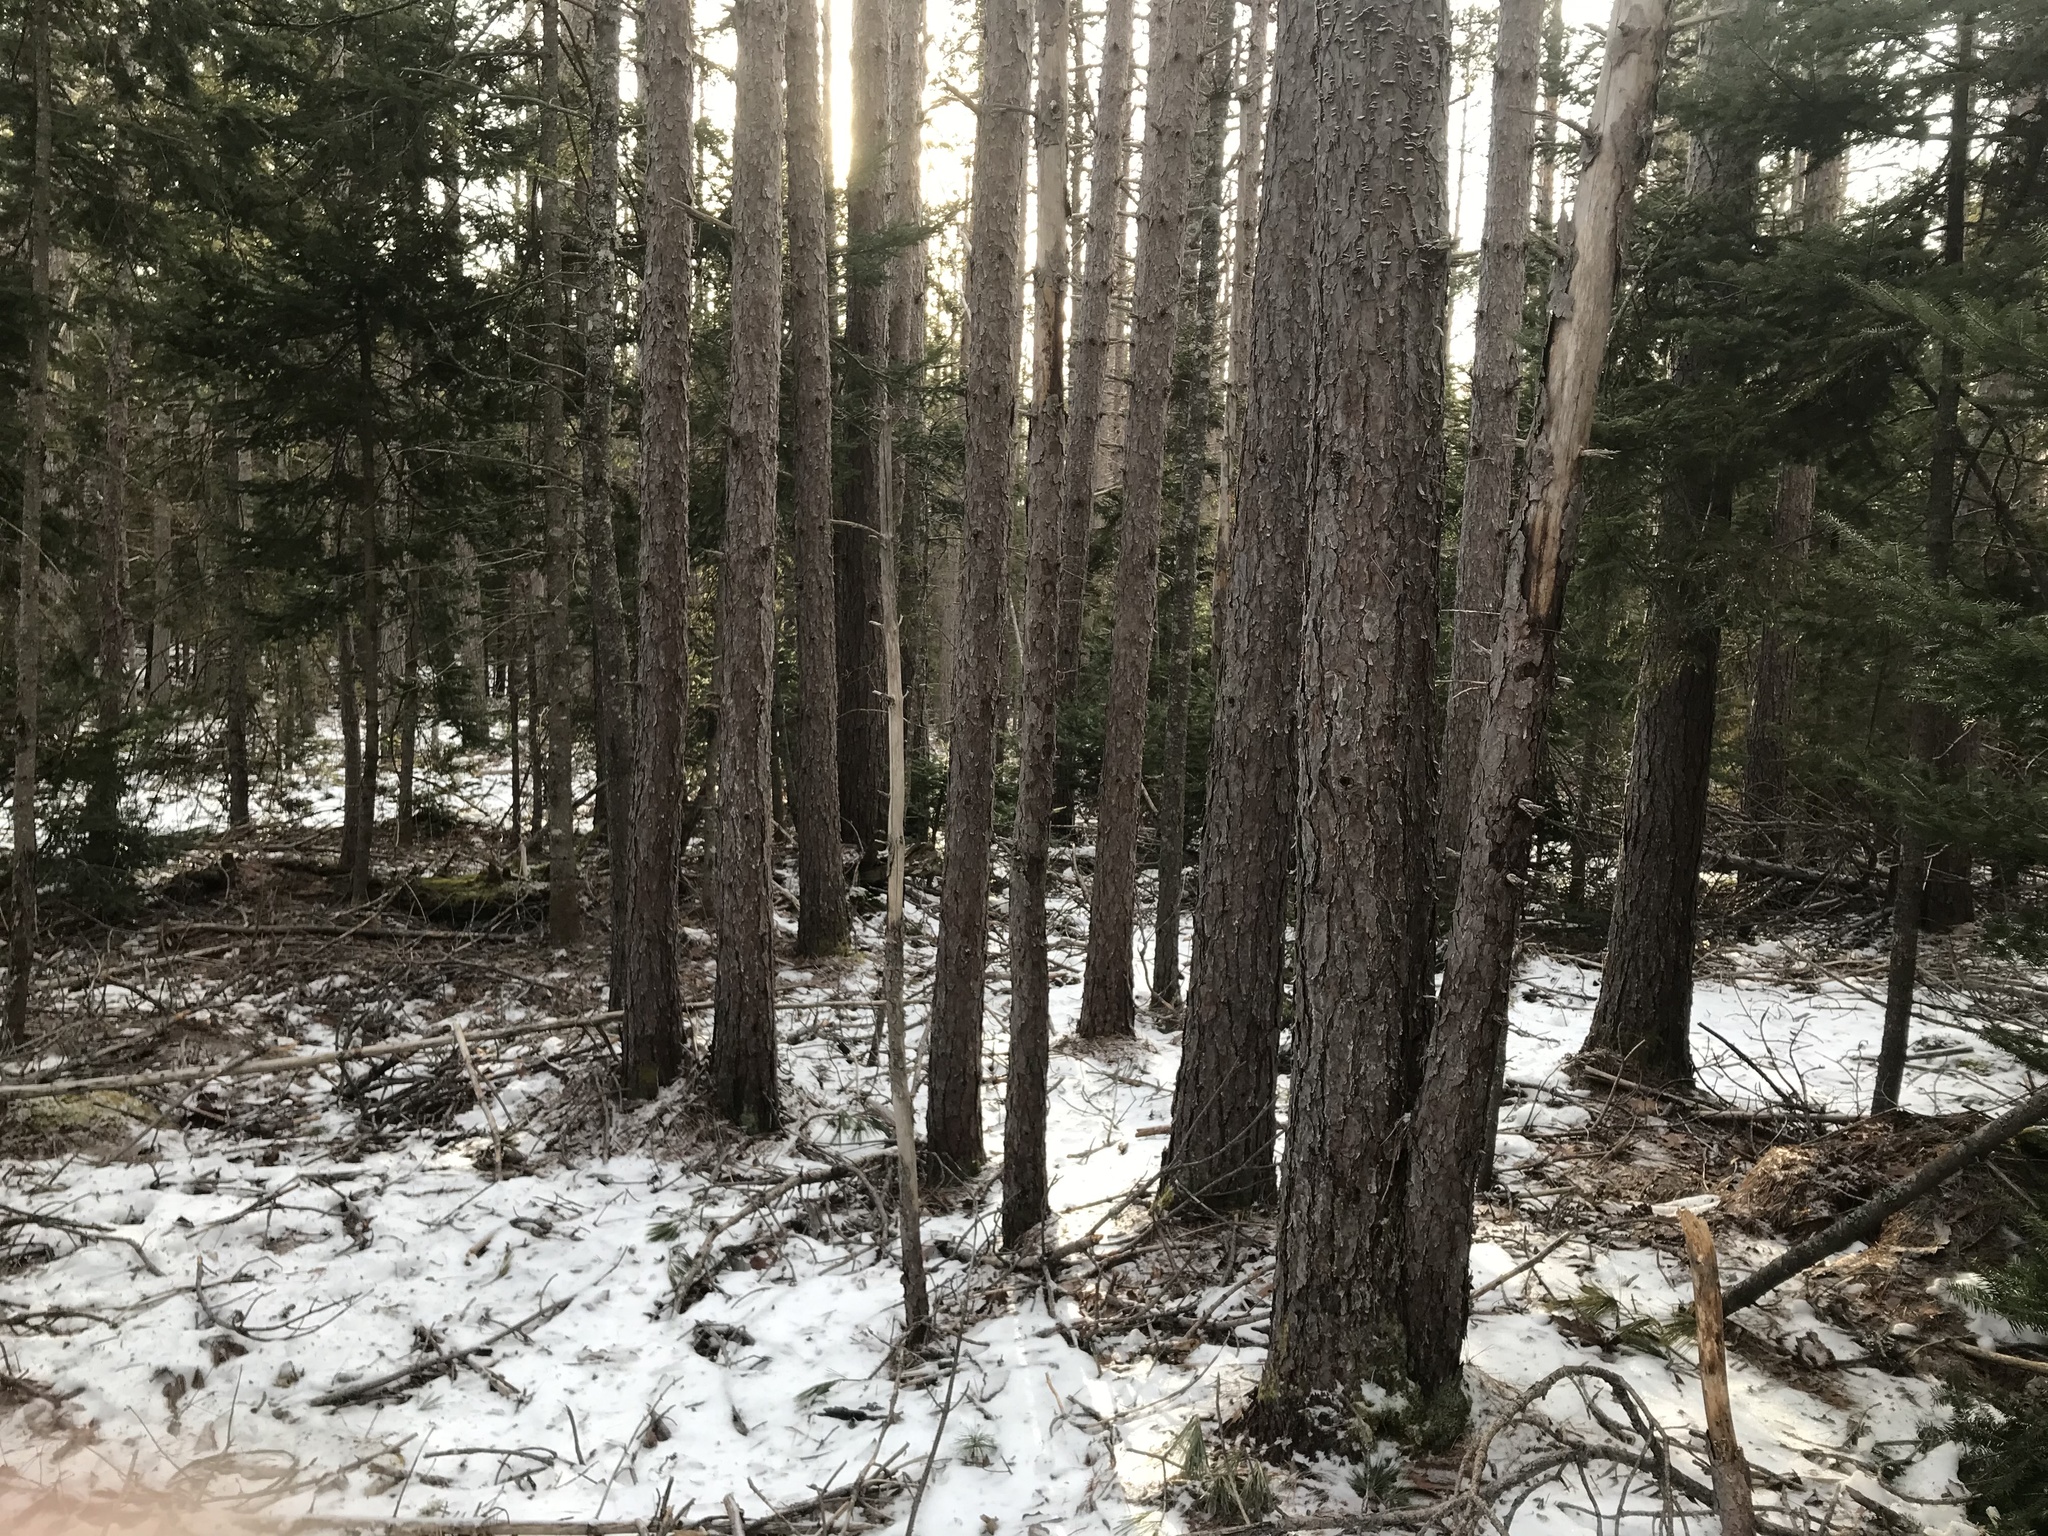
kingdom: Plantae
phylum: Tracheophyta
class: Pinopsida
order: Pinales
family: Pinaceae
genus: Pinus
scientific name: Pinus resinosa
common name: Norway pine
